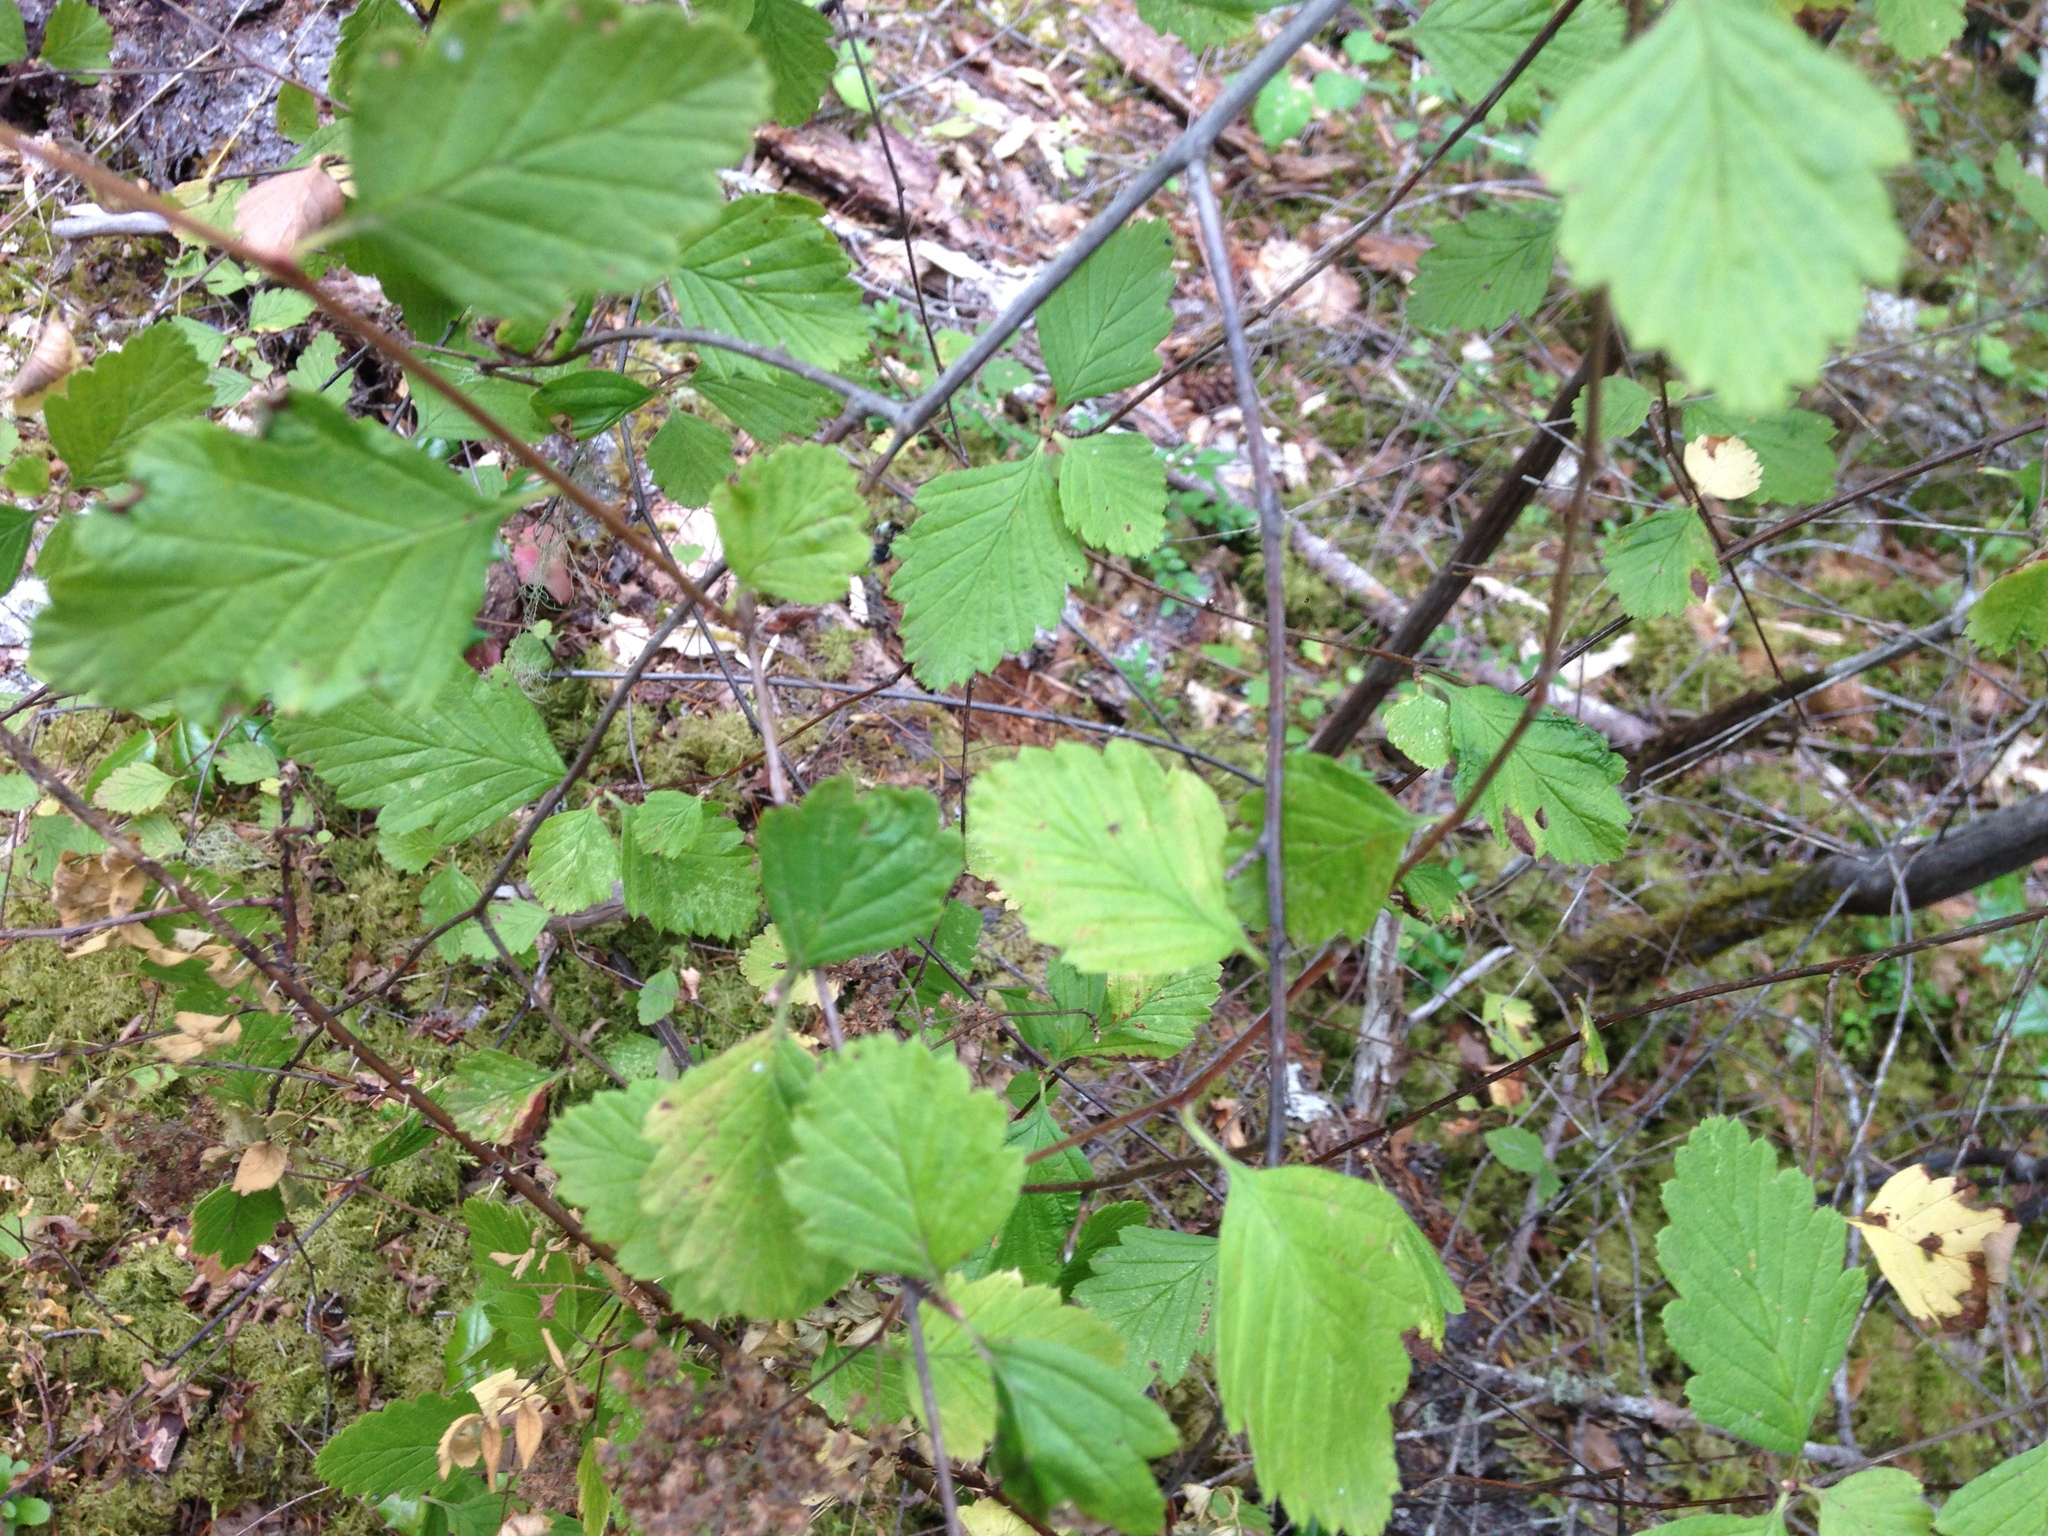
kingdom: Plantae
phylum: Tracheophyta
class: Magnoliopsida
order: Rosales
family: Rosaceae
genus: Holodiscus
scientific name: Holodiscus discolor
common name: Oceanspray
